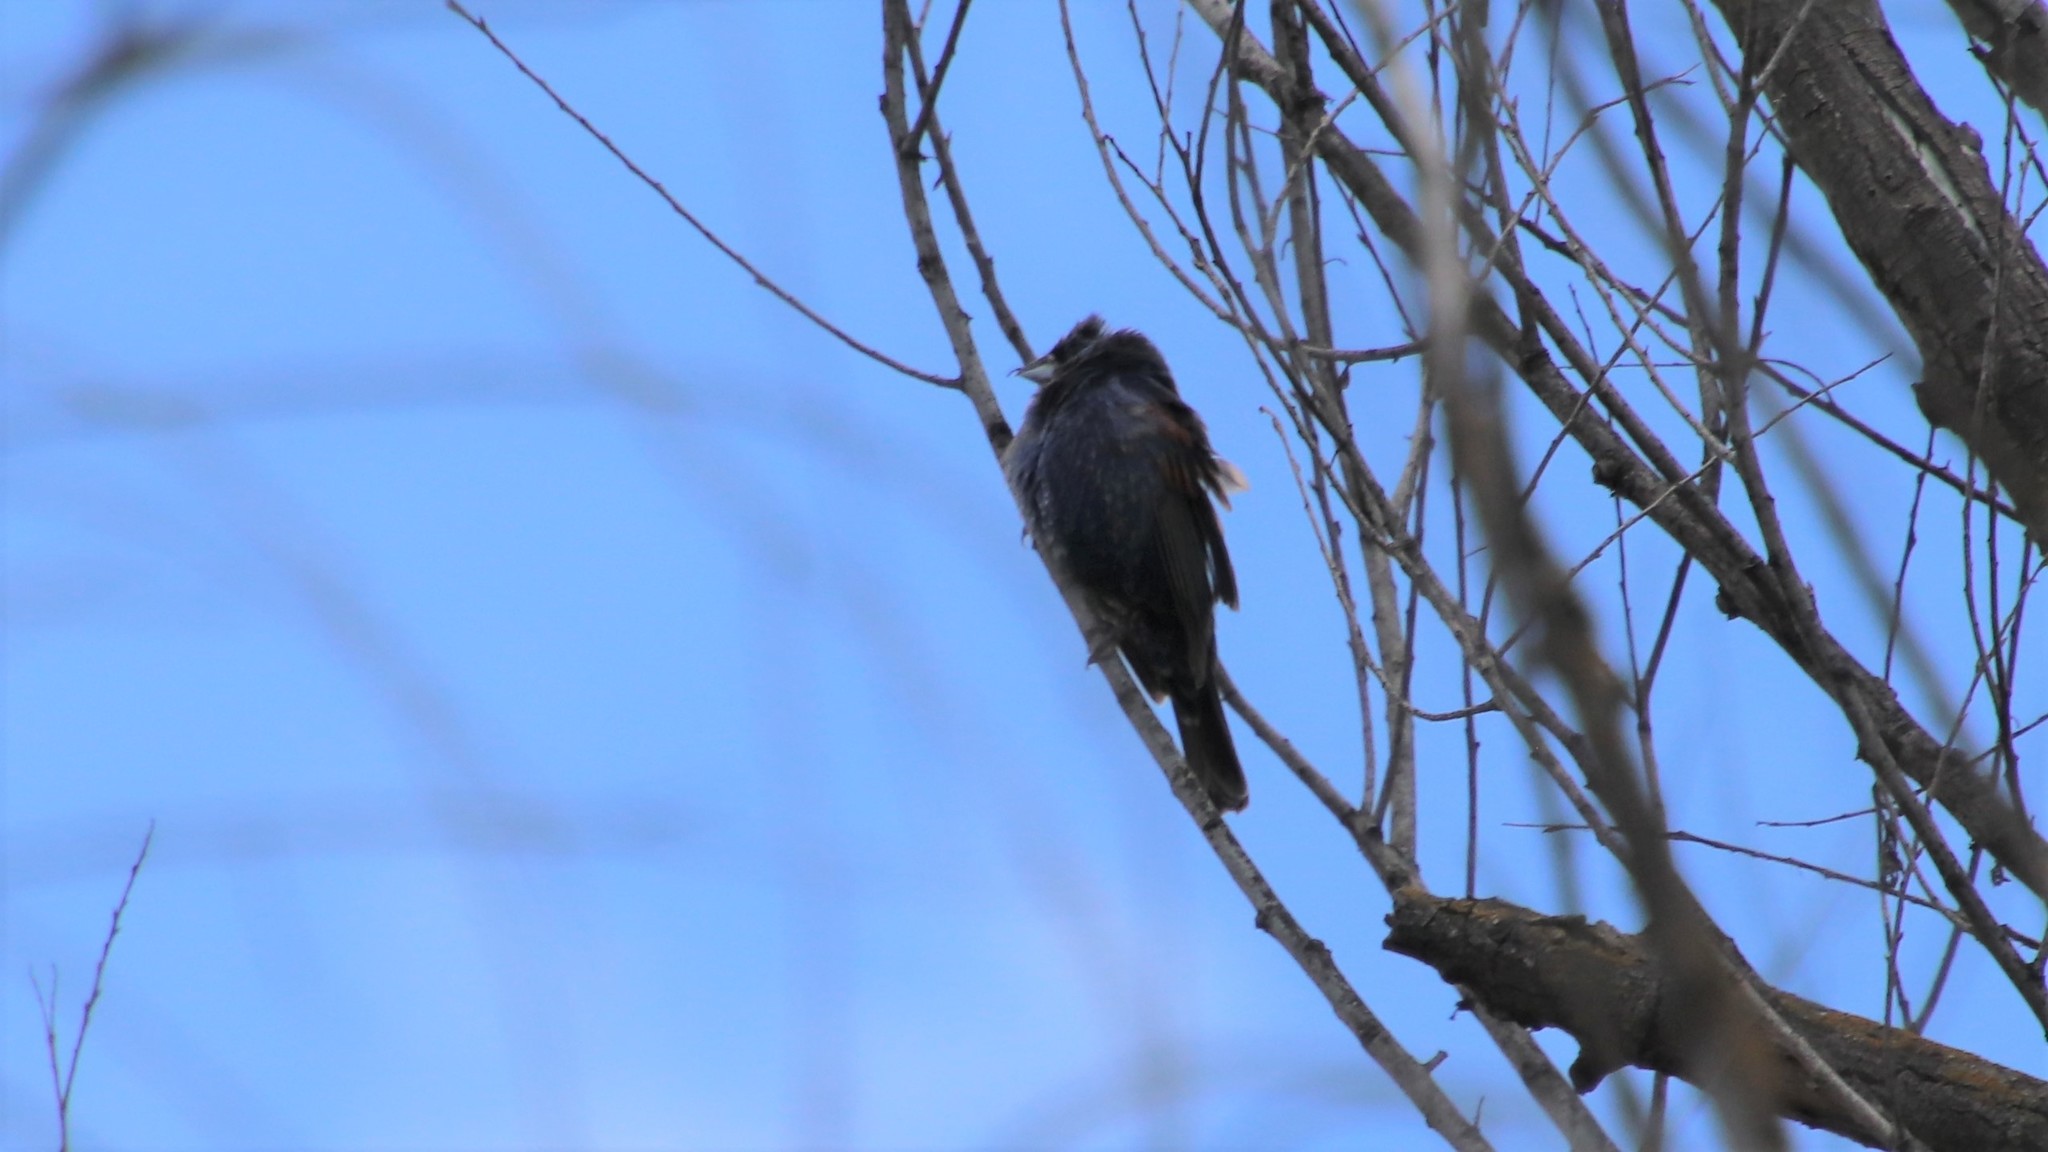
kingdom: Animalia
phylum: Chordata
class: Aves
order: Passeriformes
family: Cardinalidae
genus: Passerina
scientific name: Passerina caerulea
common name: Blue grosbeak
